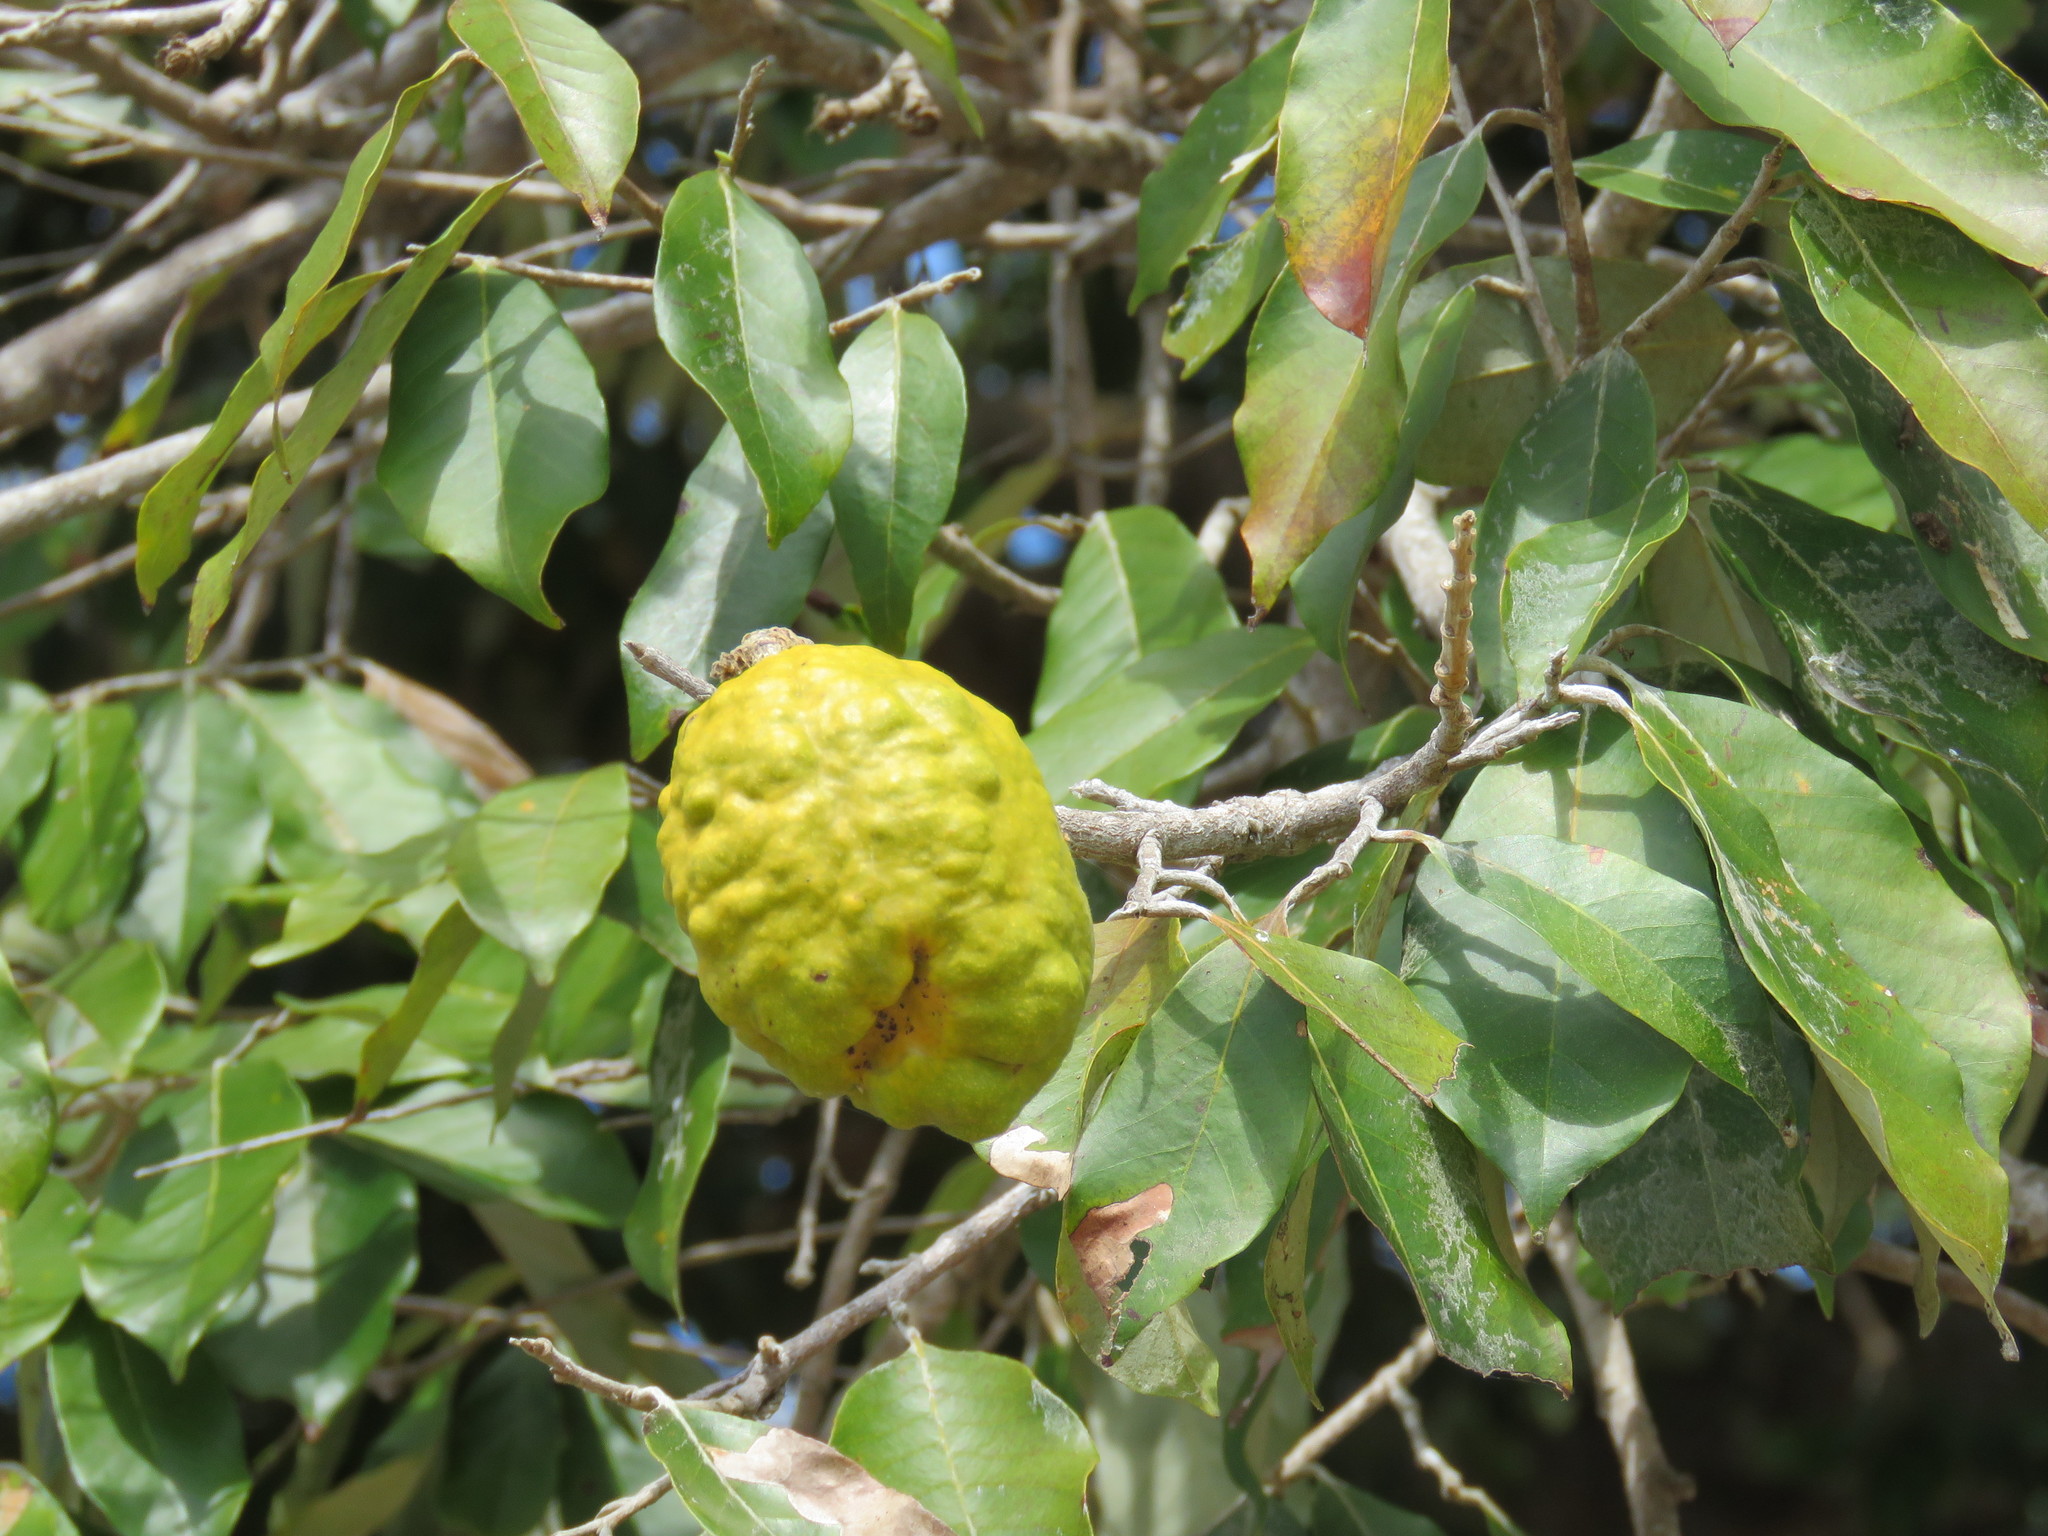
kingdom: Plantae
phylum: Tracheophyta
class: Magnoliopsida
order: Malpighiales
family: Chrysobalanaceae
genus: Couepia
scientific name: Couepia polyandra
